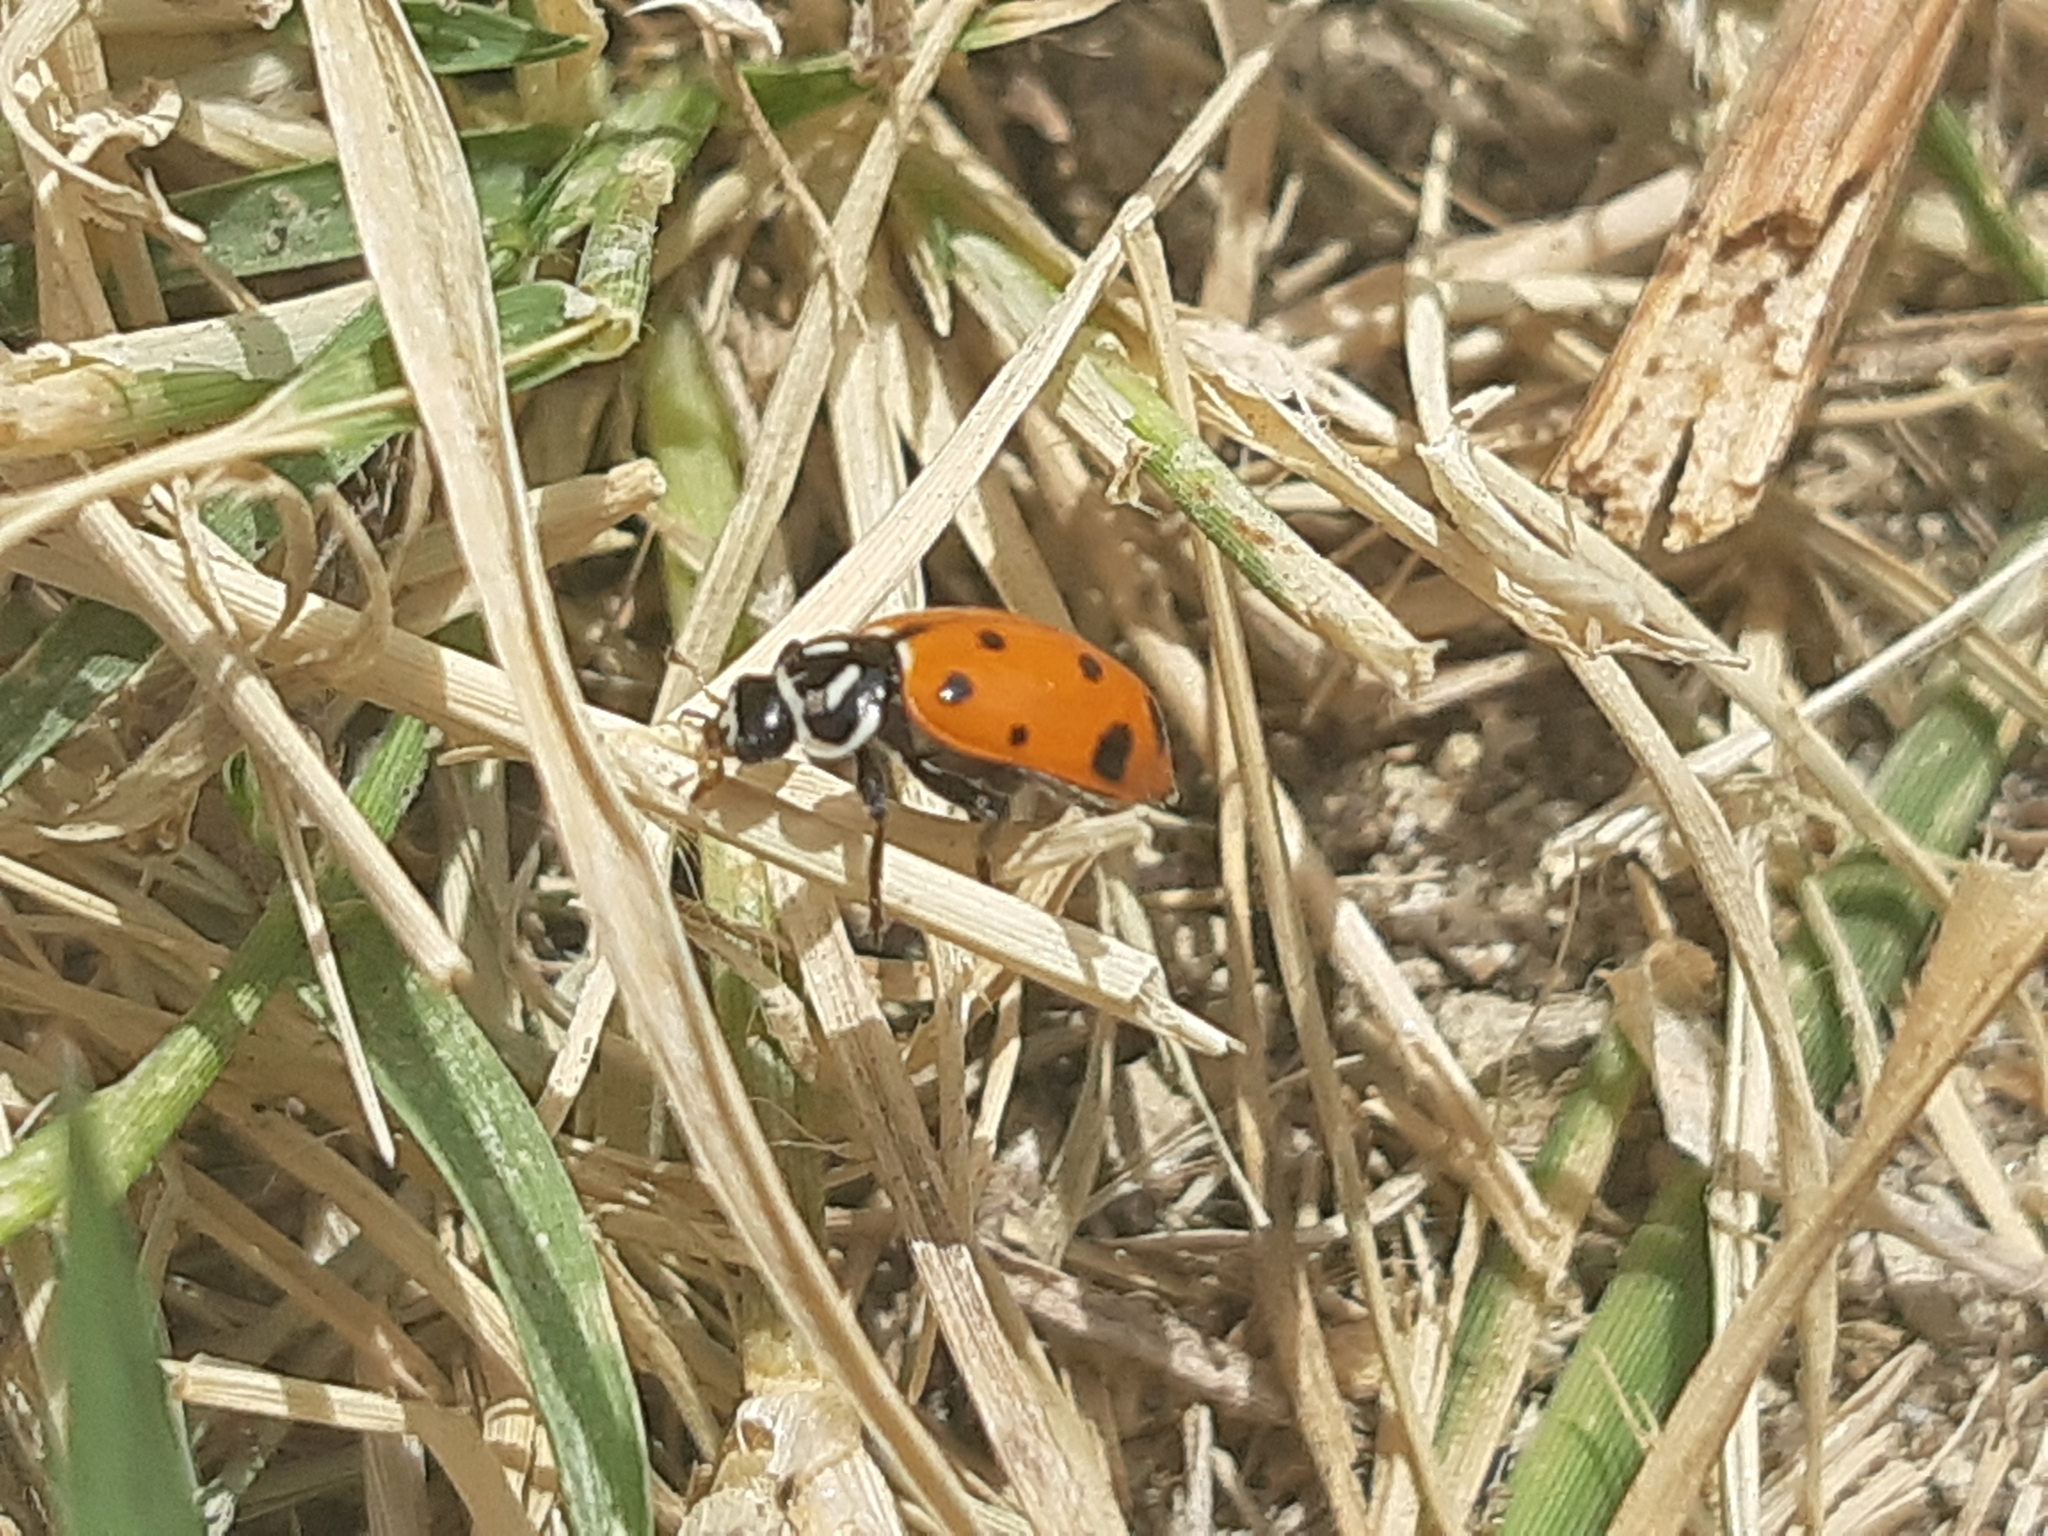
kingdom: Animalia
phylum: Arthropoda
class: Insecta
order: Coleoptera
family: Coccinellidae
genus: Hippodamia
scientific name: Hippodamia convergens
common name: Convergent lady beetle
